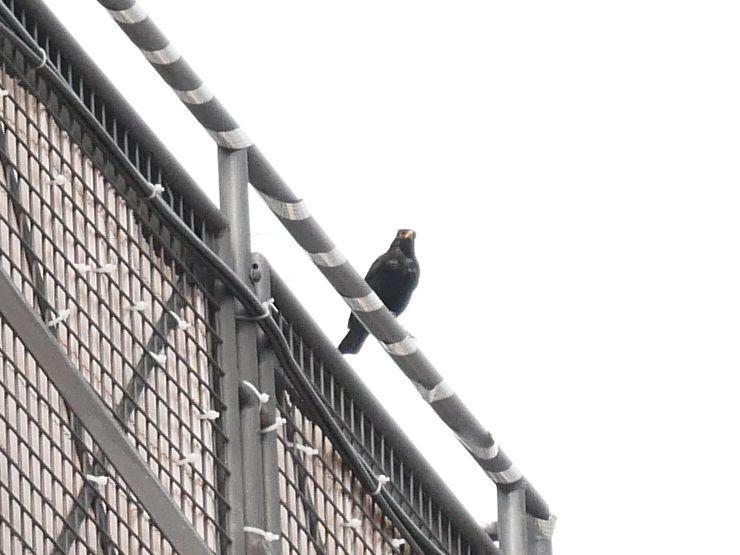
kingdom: Animalia
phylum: Chordata
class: Aves
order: Passeriformes
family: Turdidae
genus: Turdus
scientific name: Turdus merula
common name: Common blackbird
